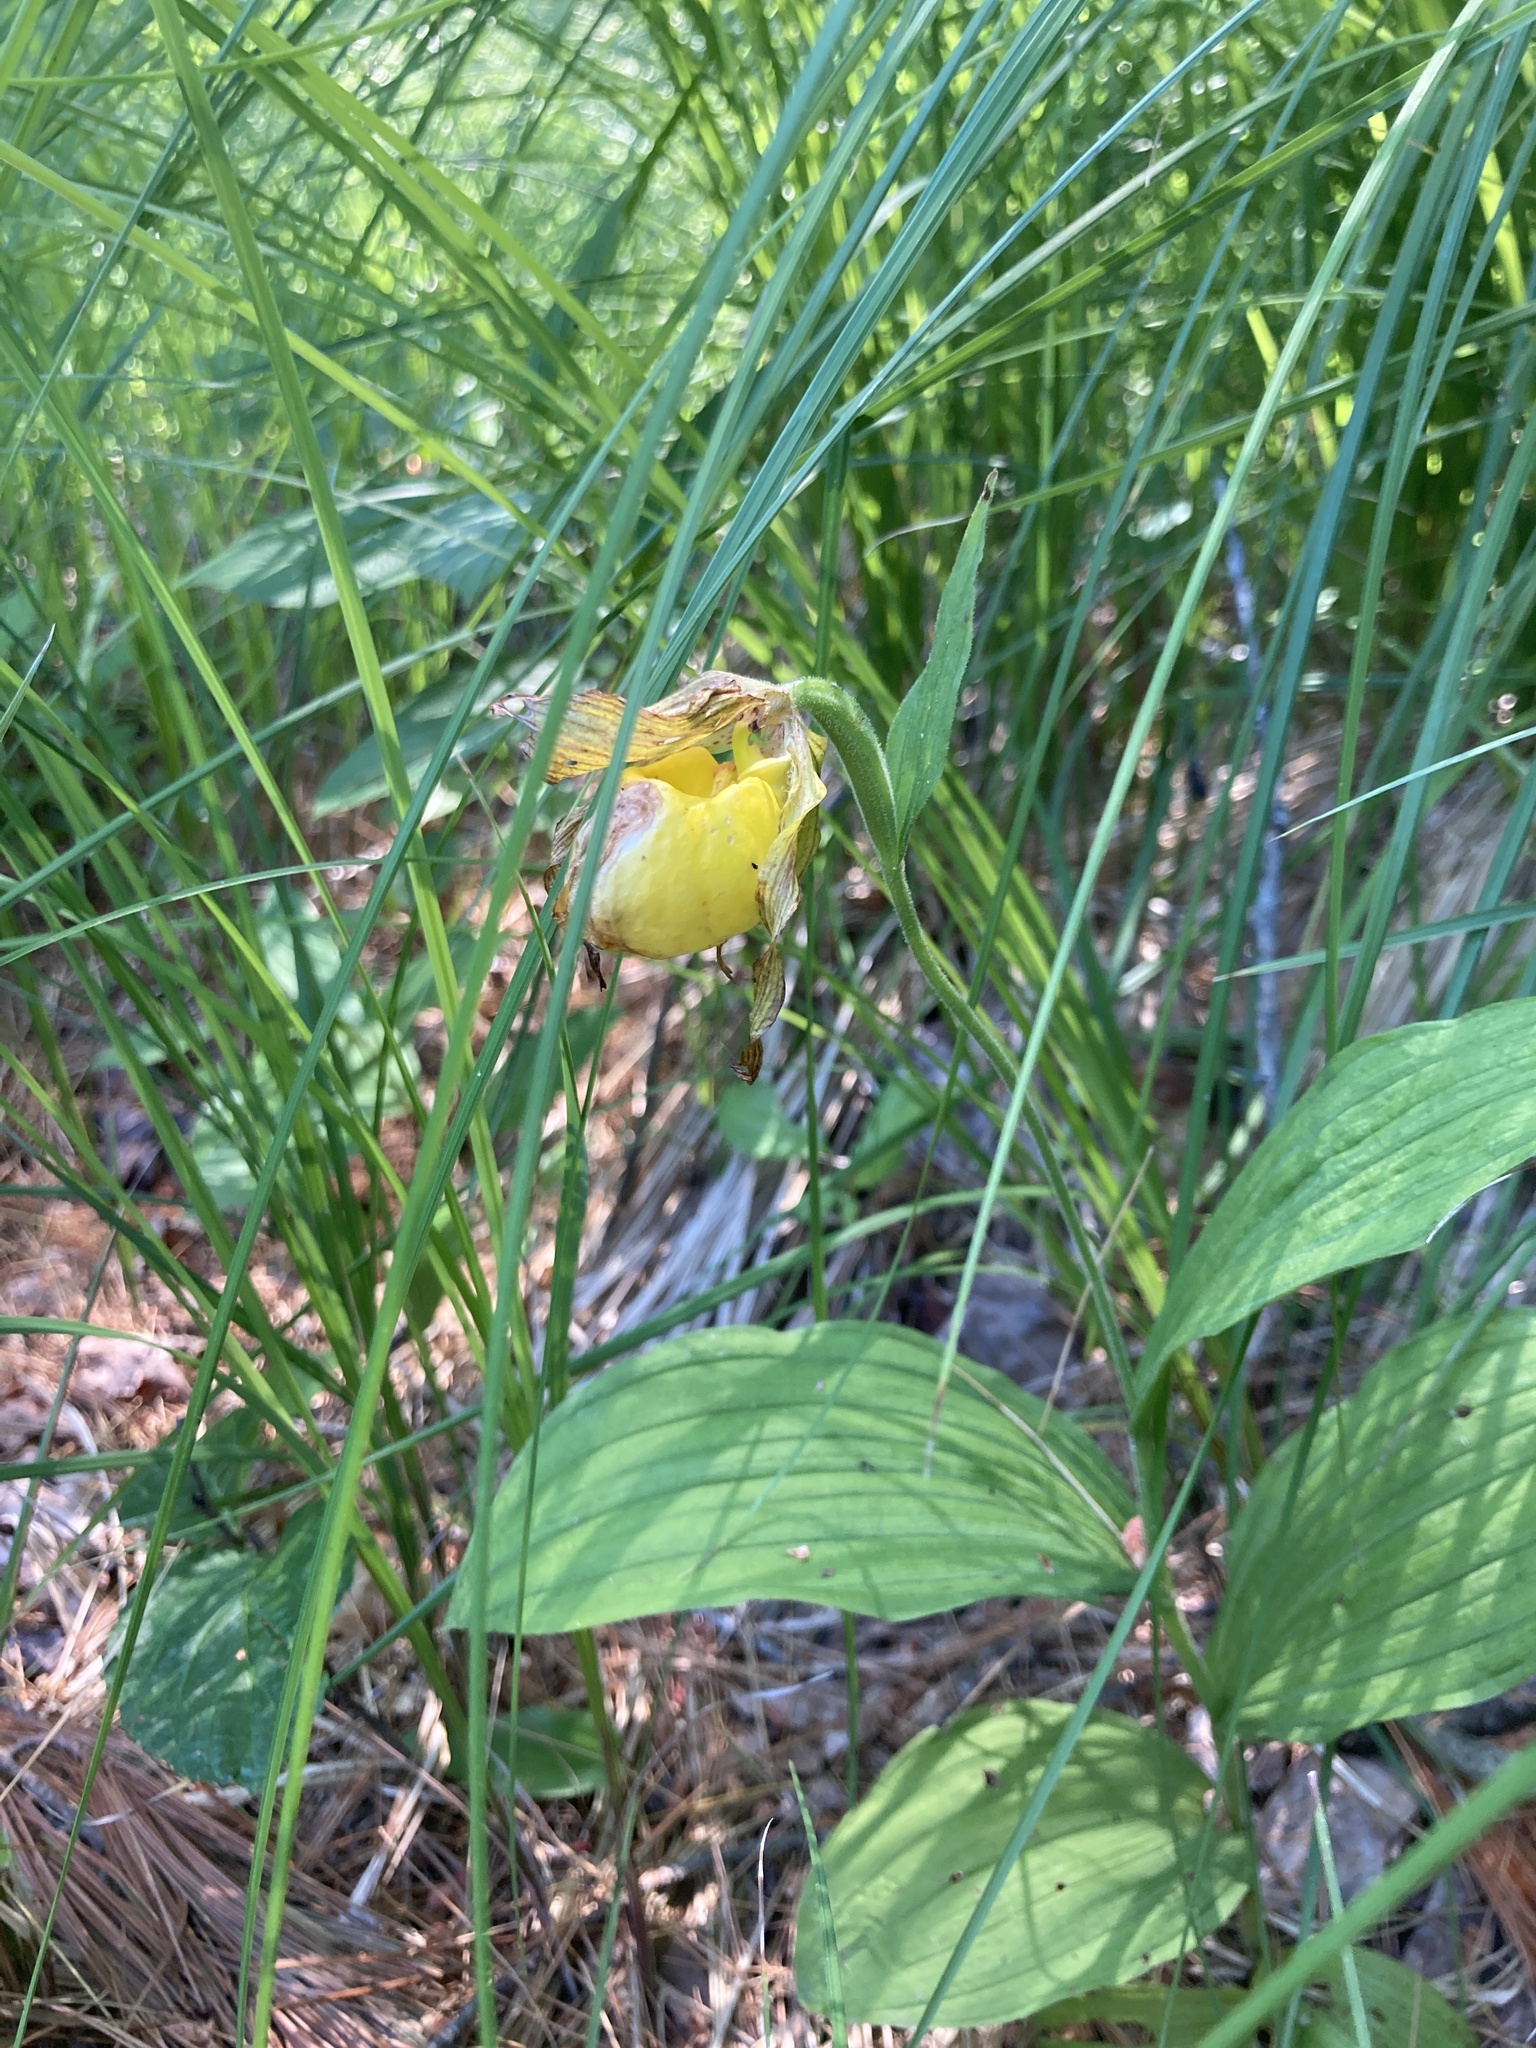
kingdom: Plantae
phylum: Tracheophyta
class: Liliopsida
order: Asparagales
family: Orchidaceae
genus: Cypripedium
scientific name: Cypripedium parviflorum
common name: American yellow lady's-slipper
